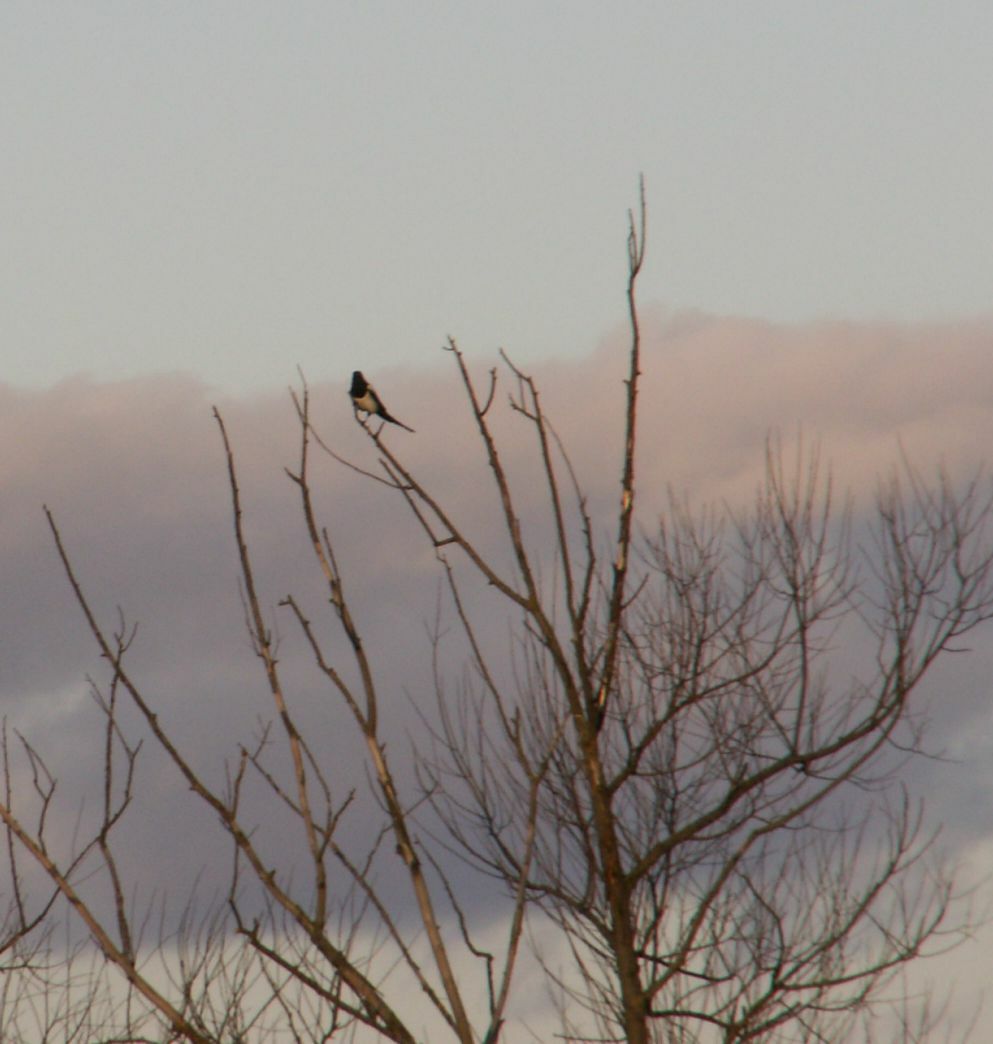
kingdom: Animalia
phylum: Chordata
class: Aves
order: Passeriformes
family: Corvidae
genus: Pica
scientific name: Pica pica
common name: Eurasian magpie
